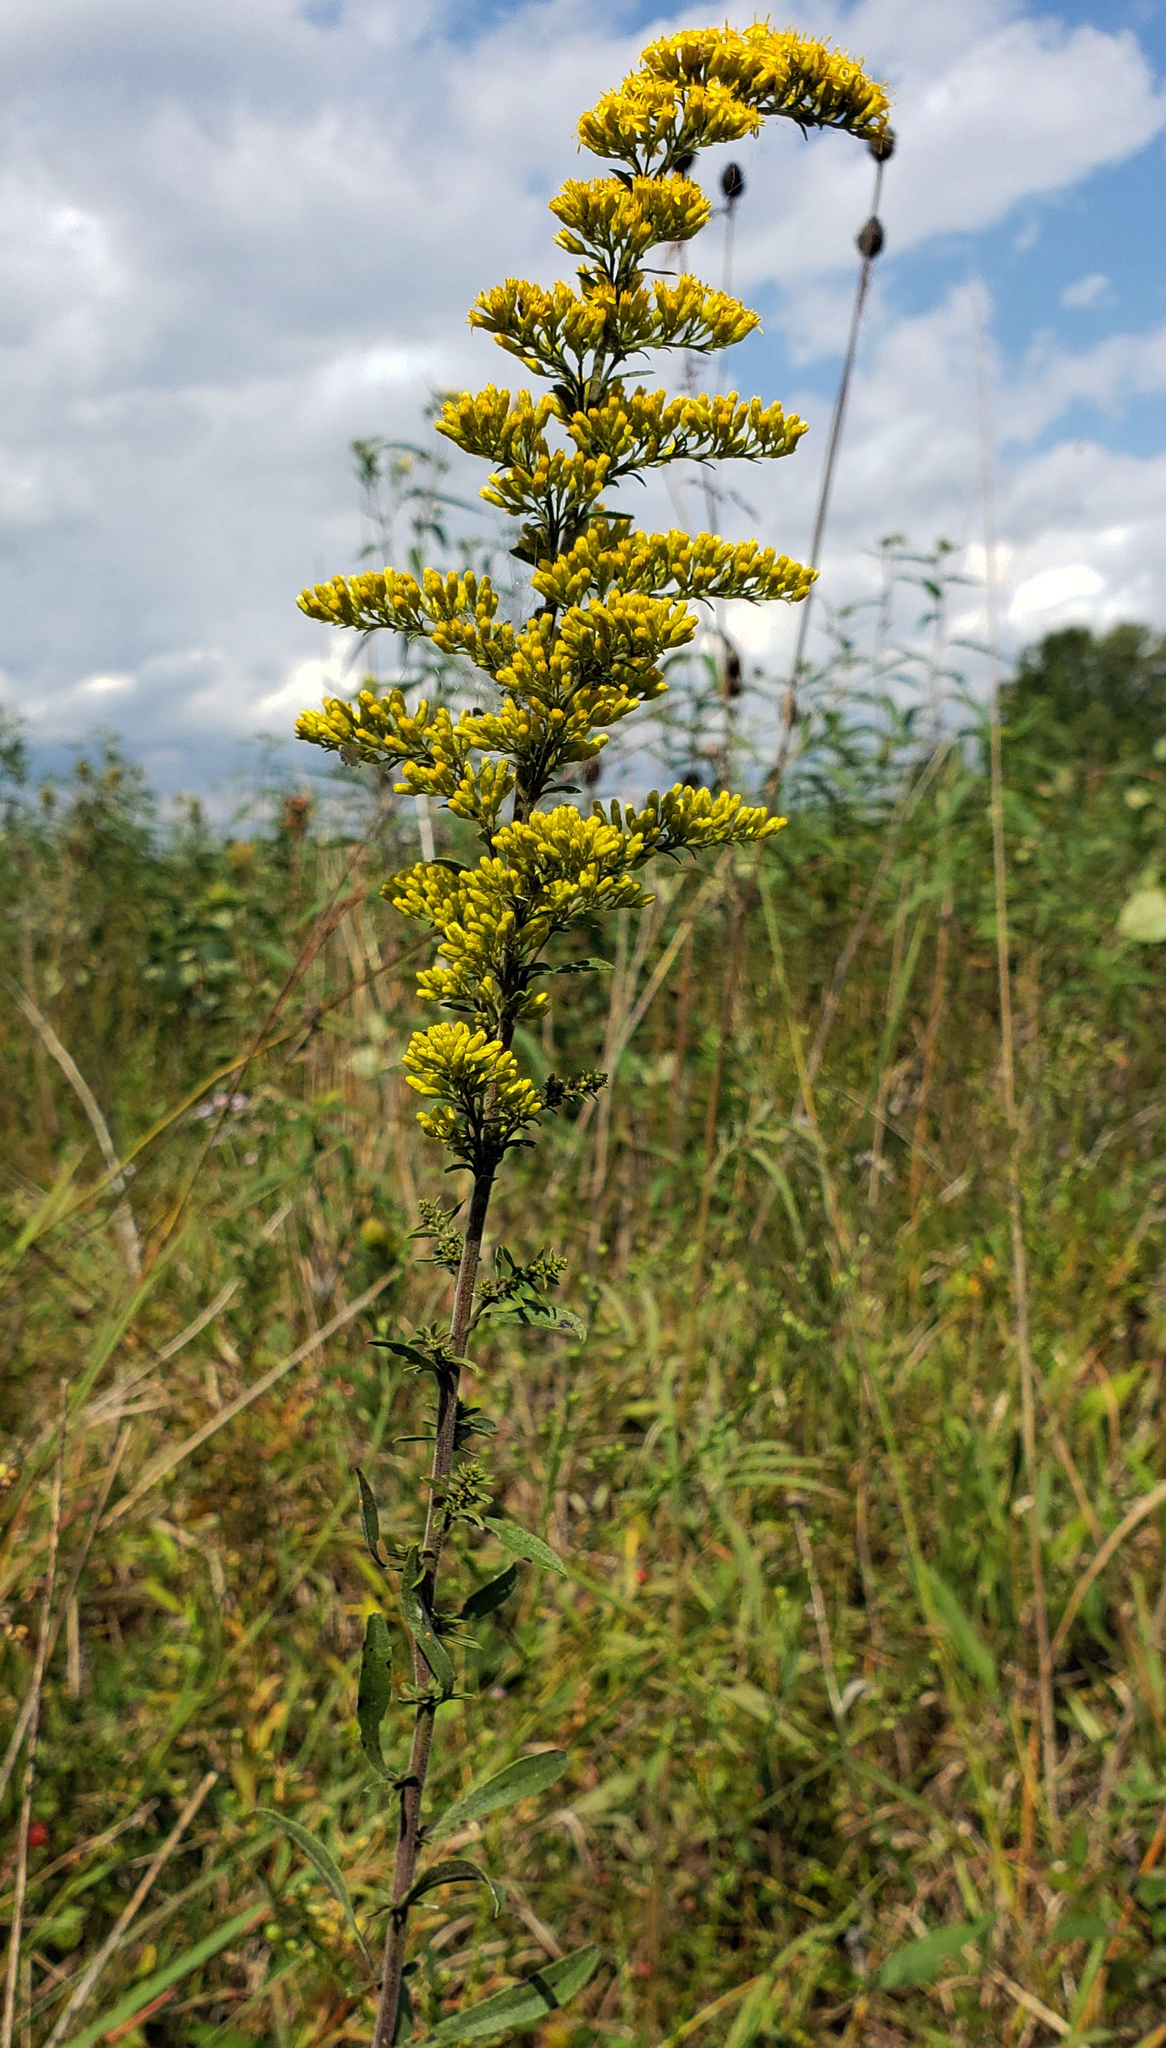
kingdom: Plantae
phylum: Tracheophyta
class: Magnoliopsida
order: Asterales
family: Asteraceae
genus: Solidago
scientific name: Solidago nemoralis
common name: Grey goldenrod
